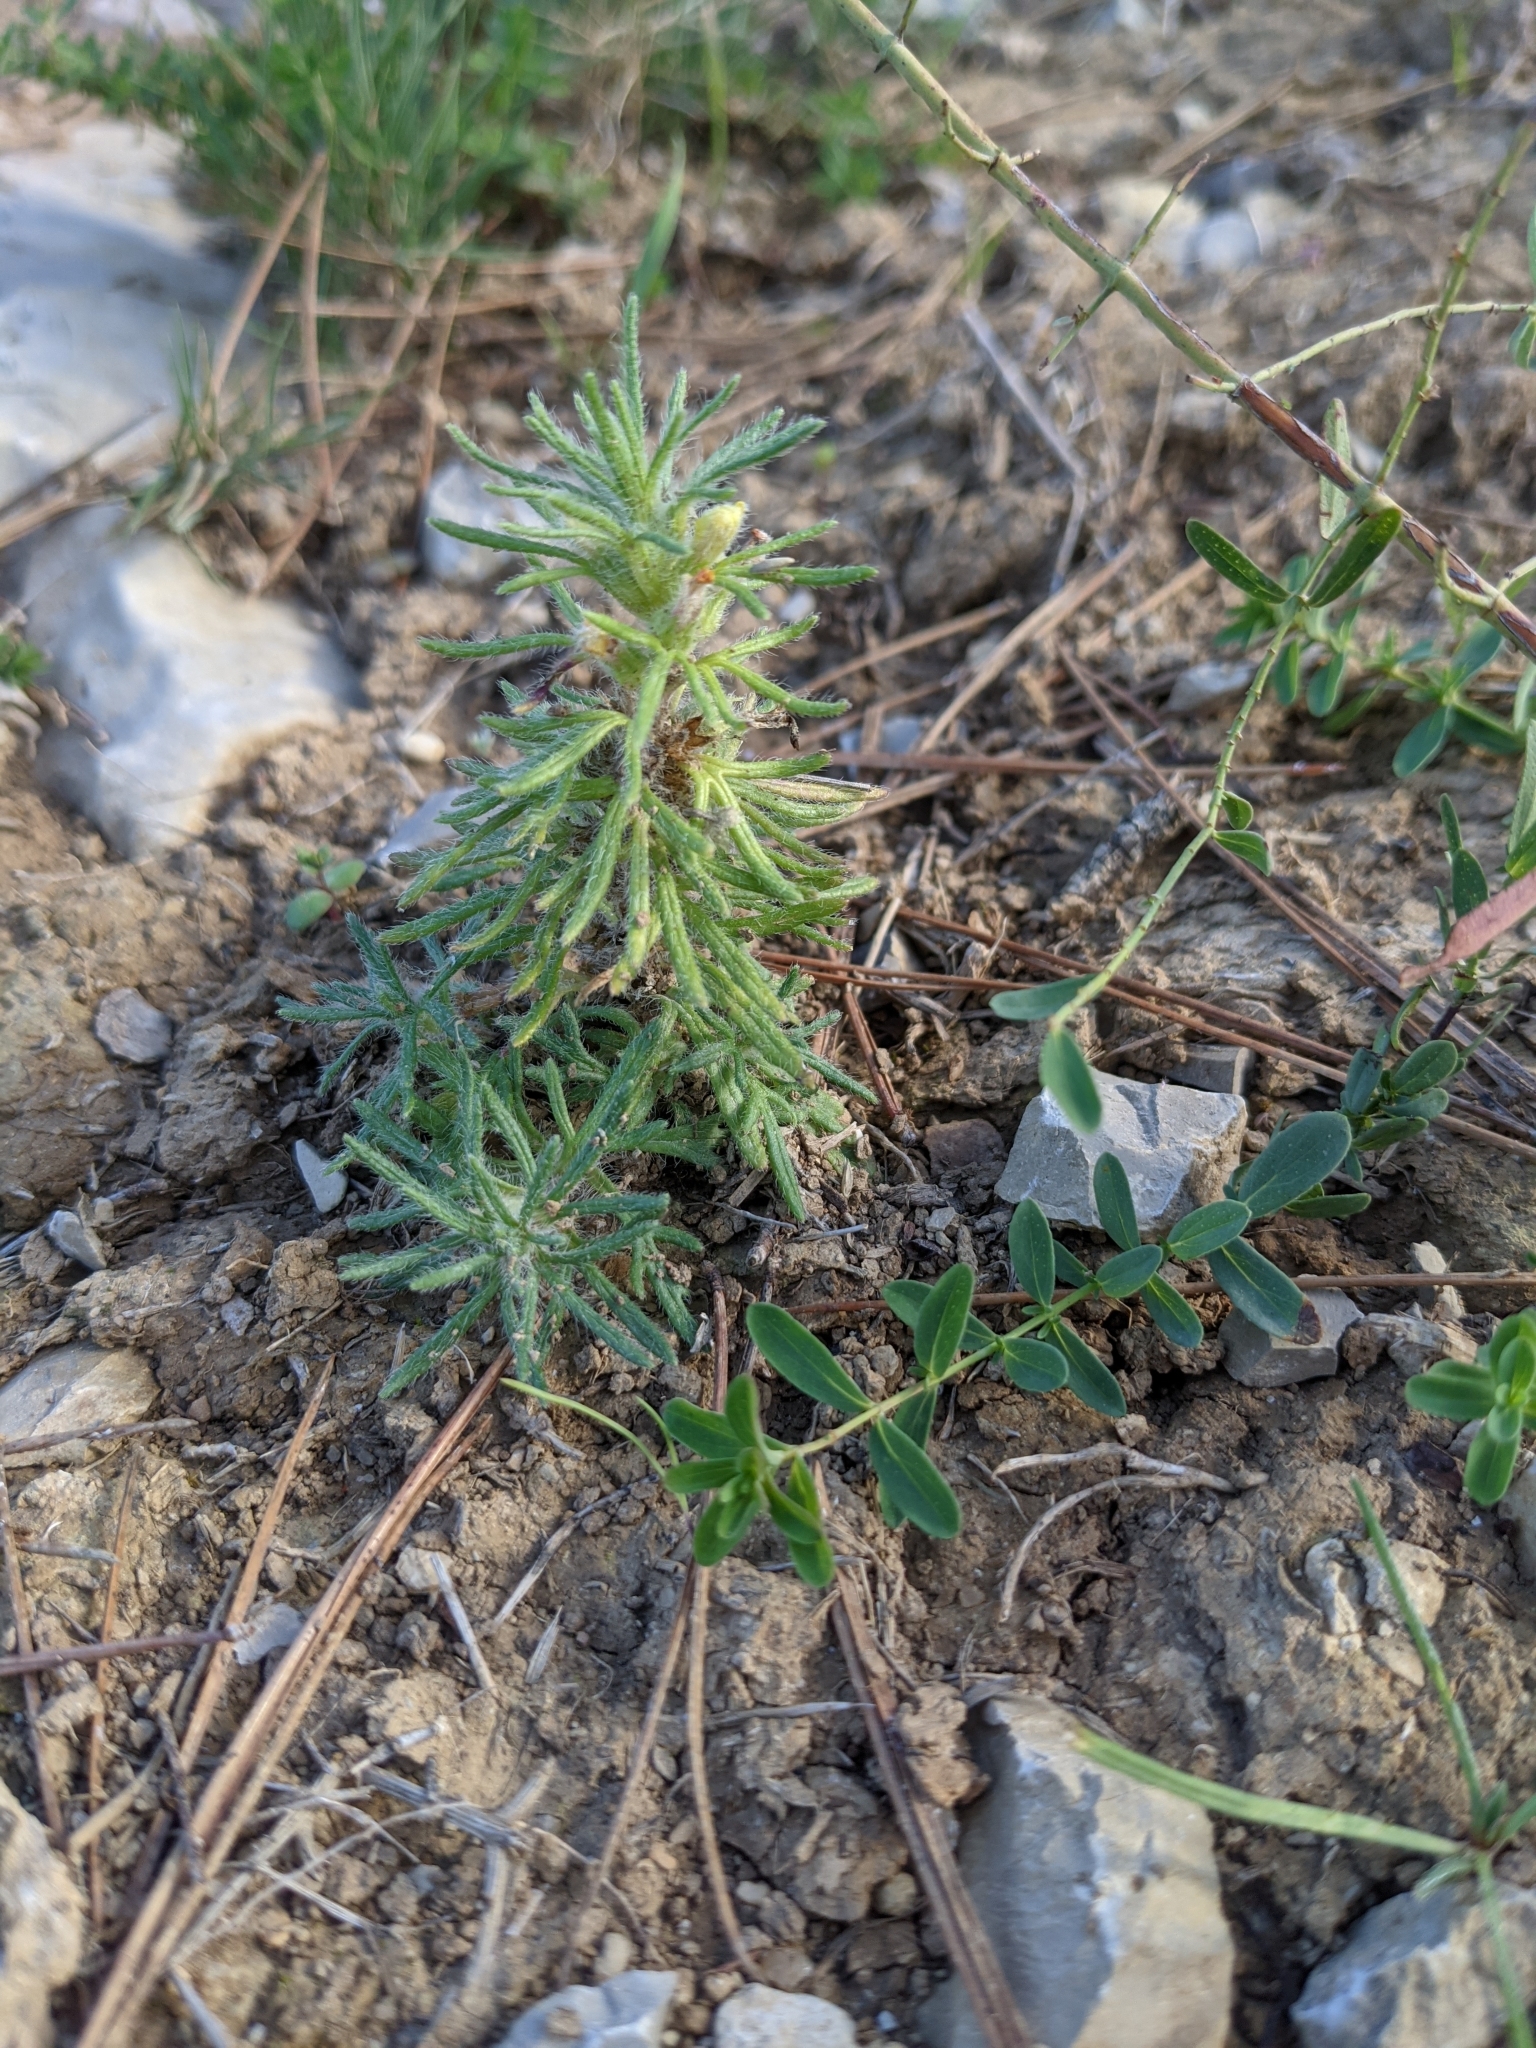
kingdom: Plantae
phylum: Tracheophyta
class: Magnoliopsida
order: Lamiales
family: Lamiaceae
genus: Ajuga
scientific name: Ajuga chamaepitys
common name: Ground-pine
